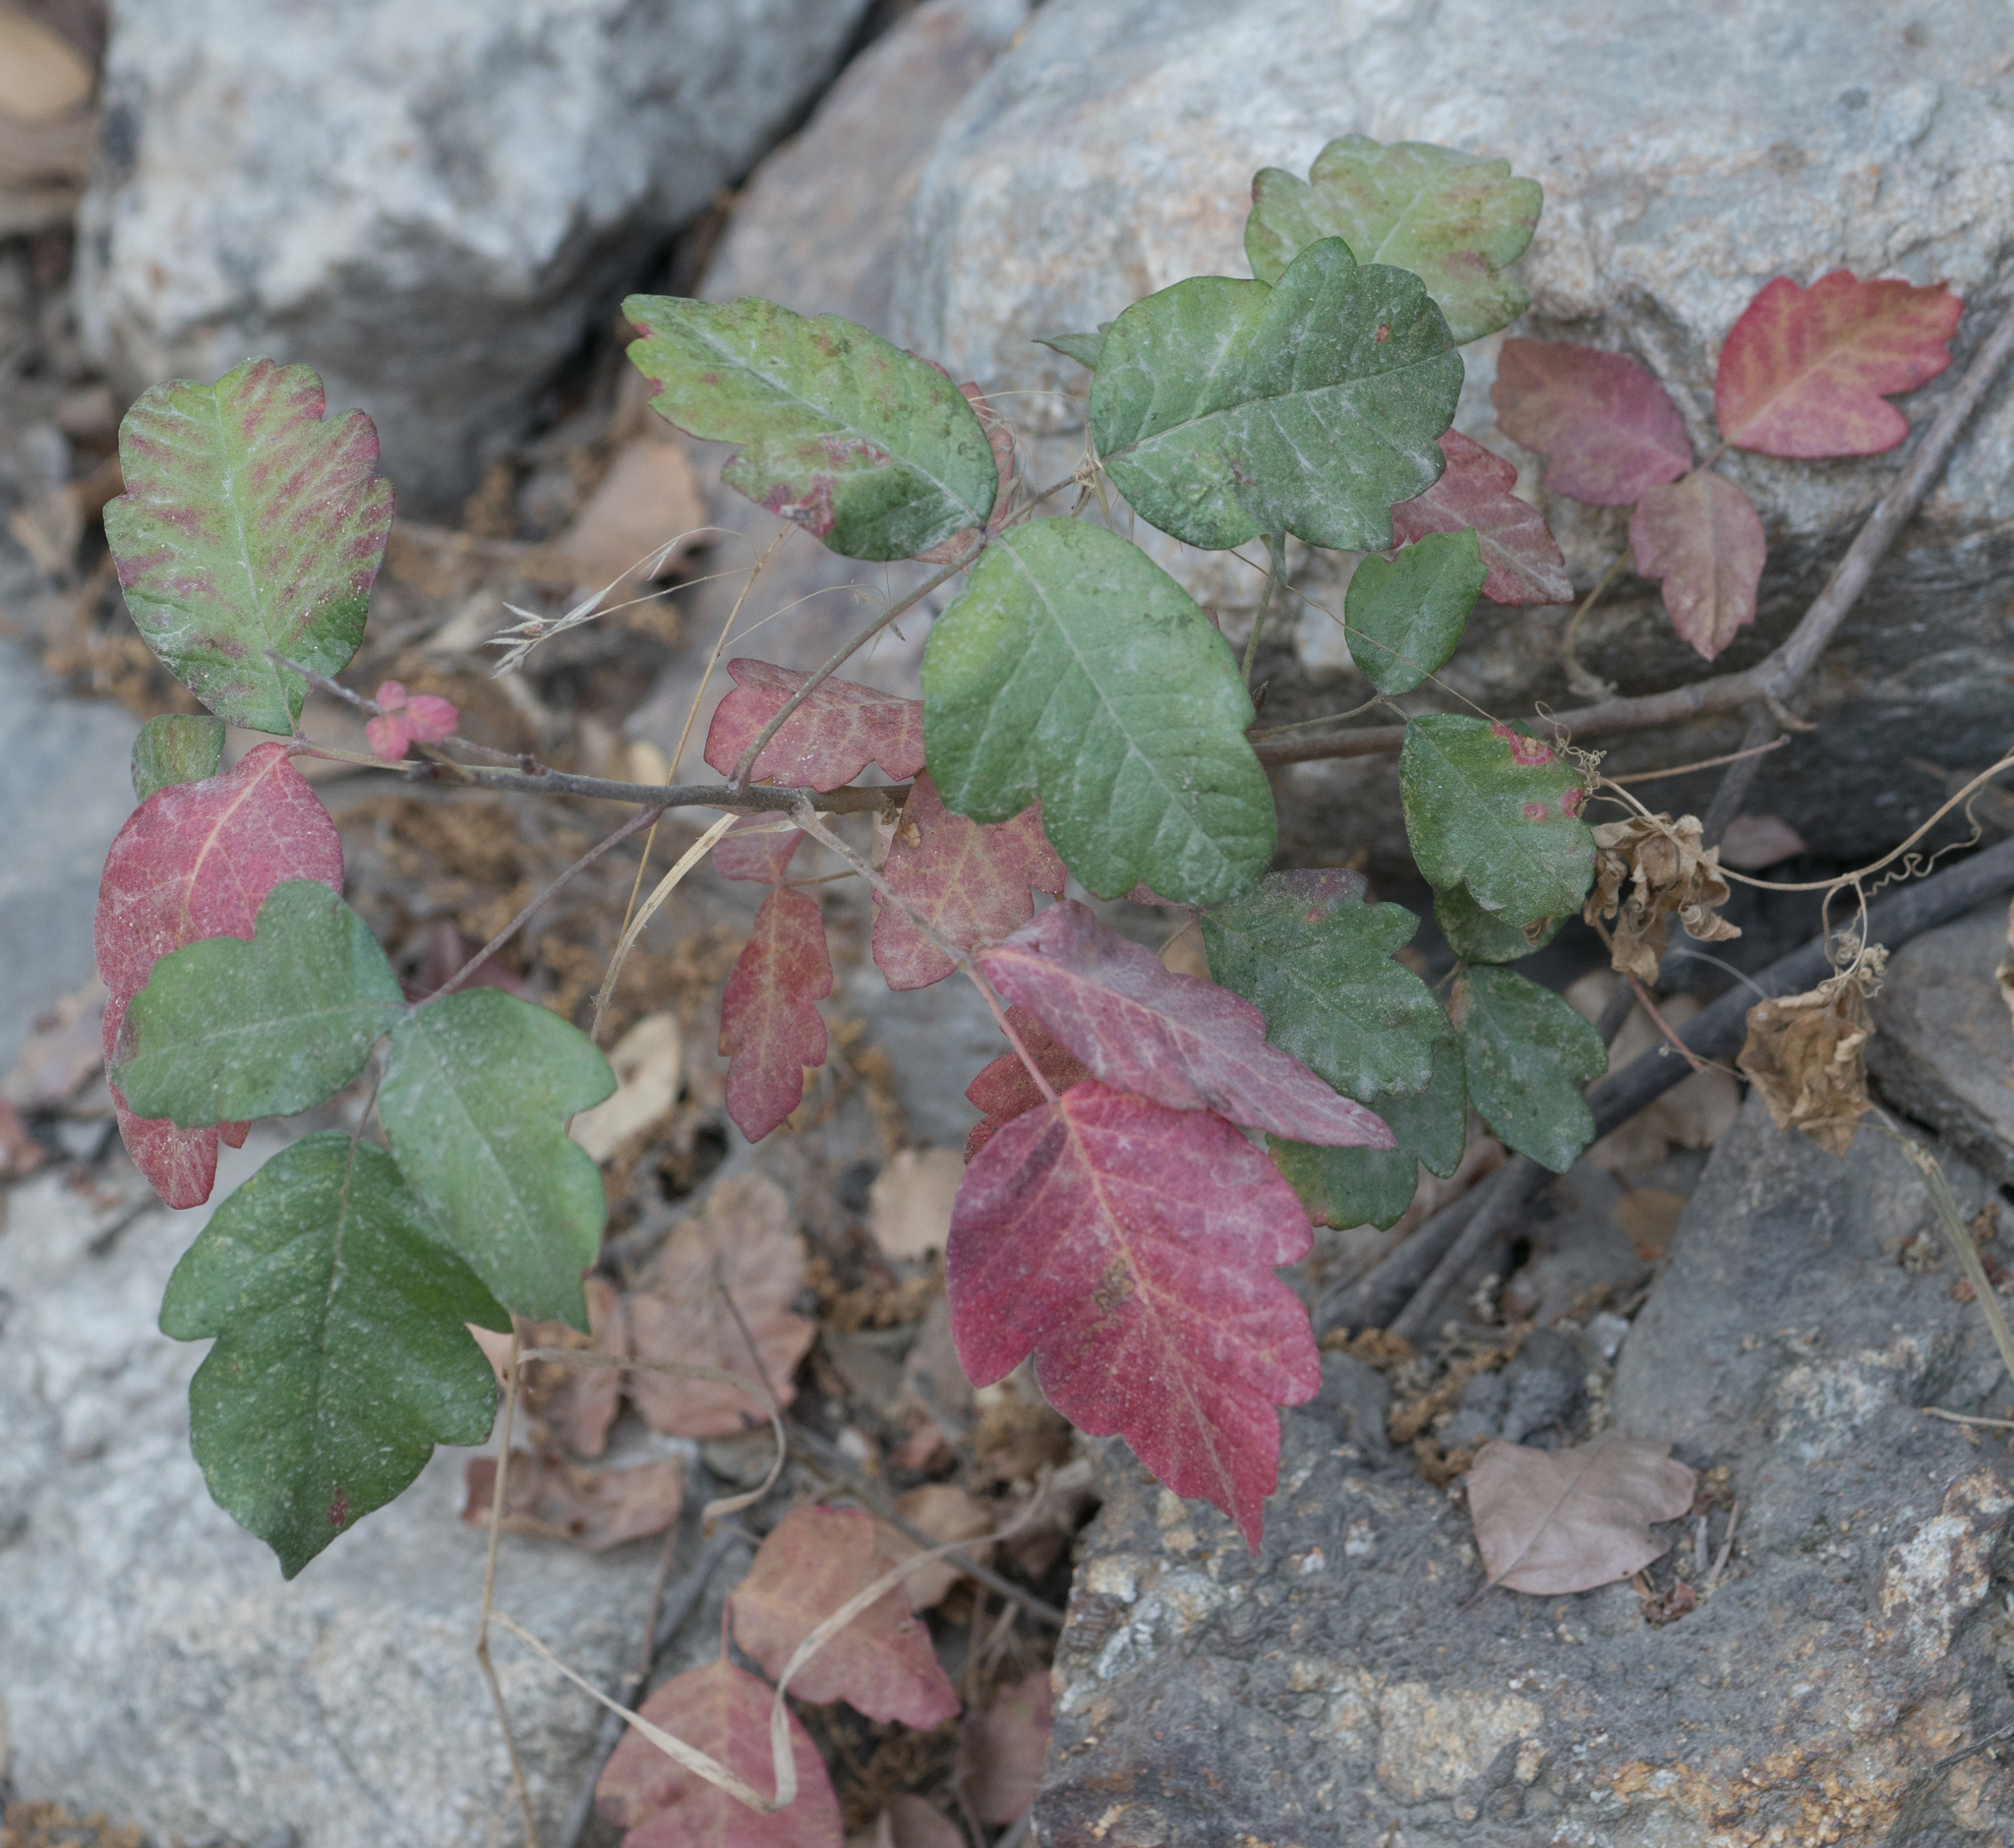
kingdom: Plantae
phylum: Tracheophyta
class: Magnoliopsida
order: Sapindales
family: Anacardiaceae
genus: Toxicodendron
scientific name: Toxicodendron diversilobum
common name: Pacific poison-oak
